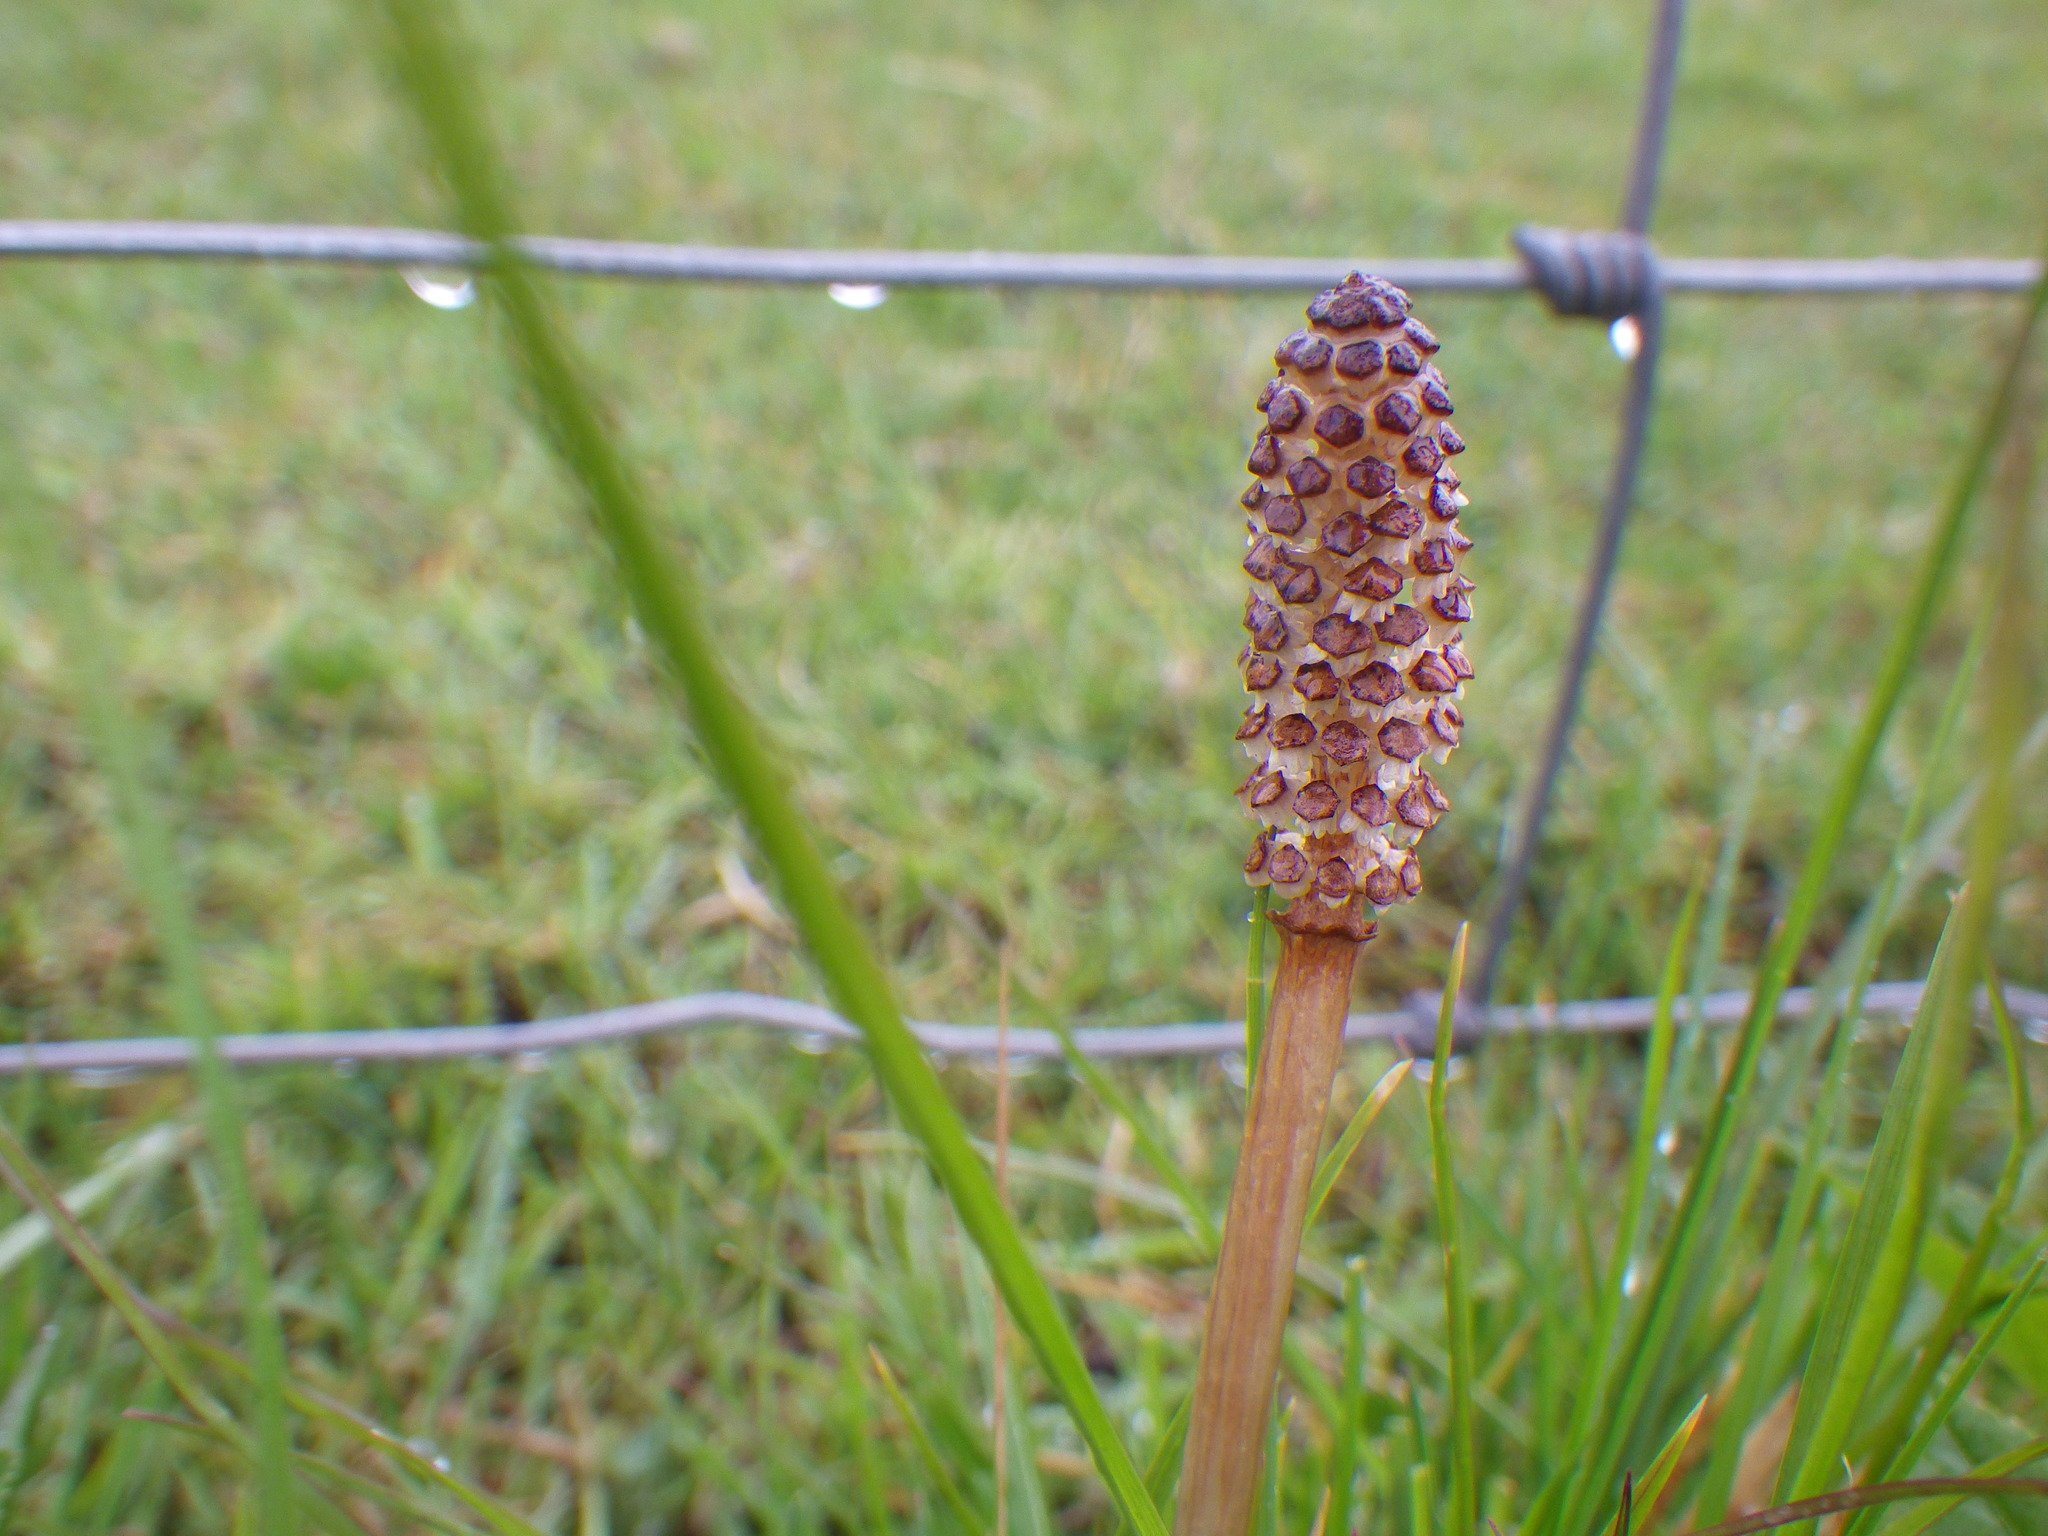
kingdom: Plantae
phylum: Tracheophyta
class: Polypodiopsida
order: Equisetales
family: Equisetaceae
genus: Equisetum
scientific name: Equisetum arvense
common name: Field horsetail
